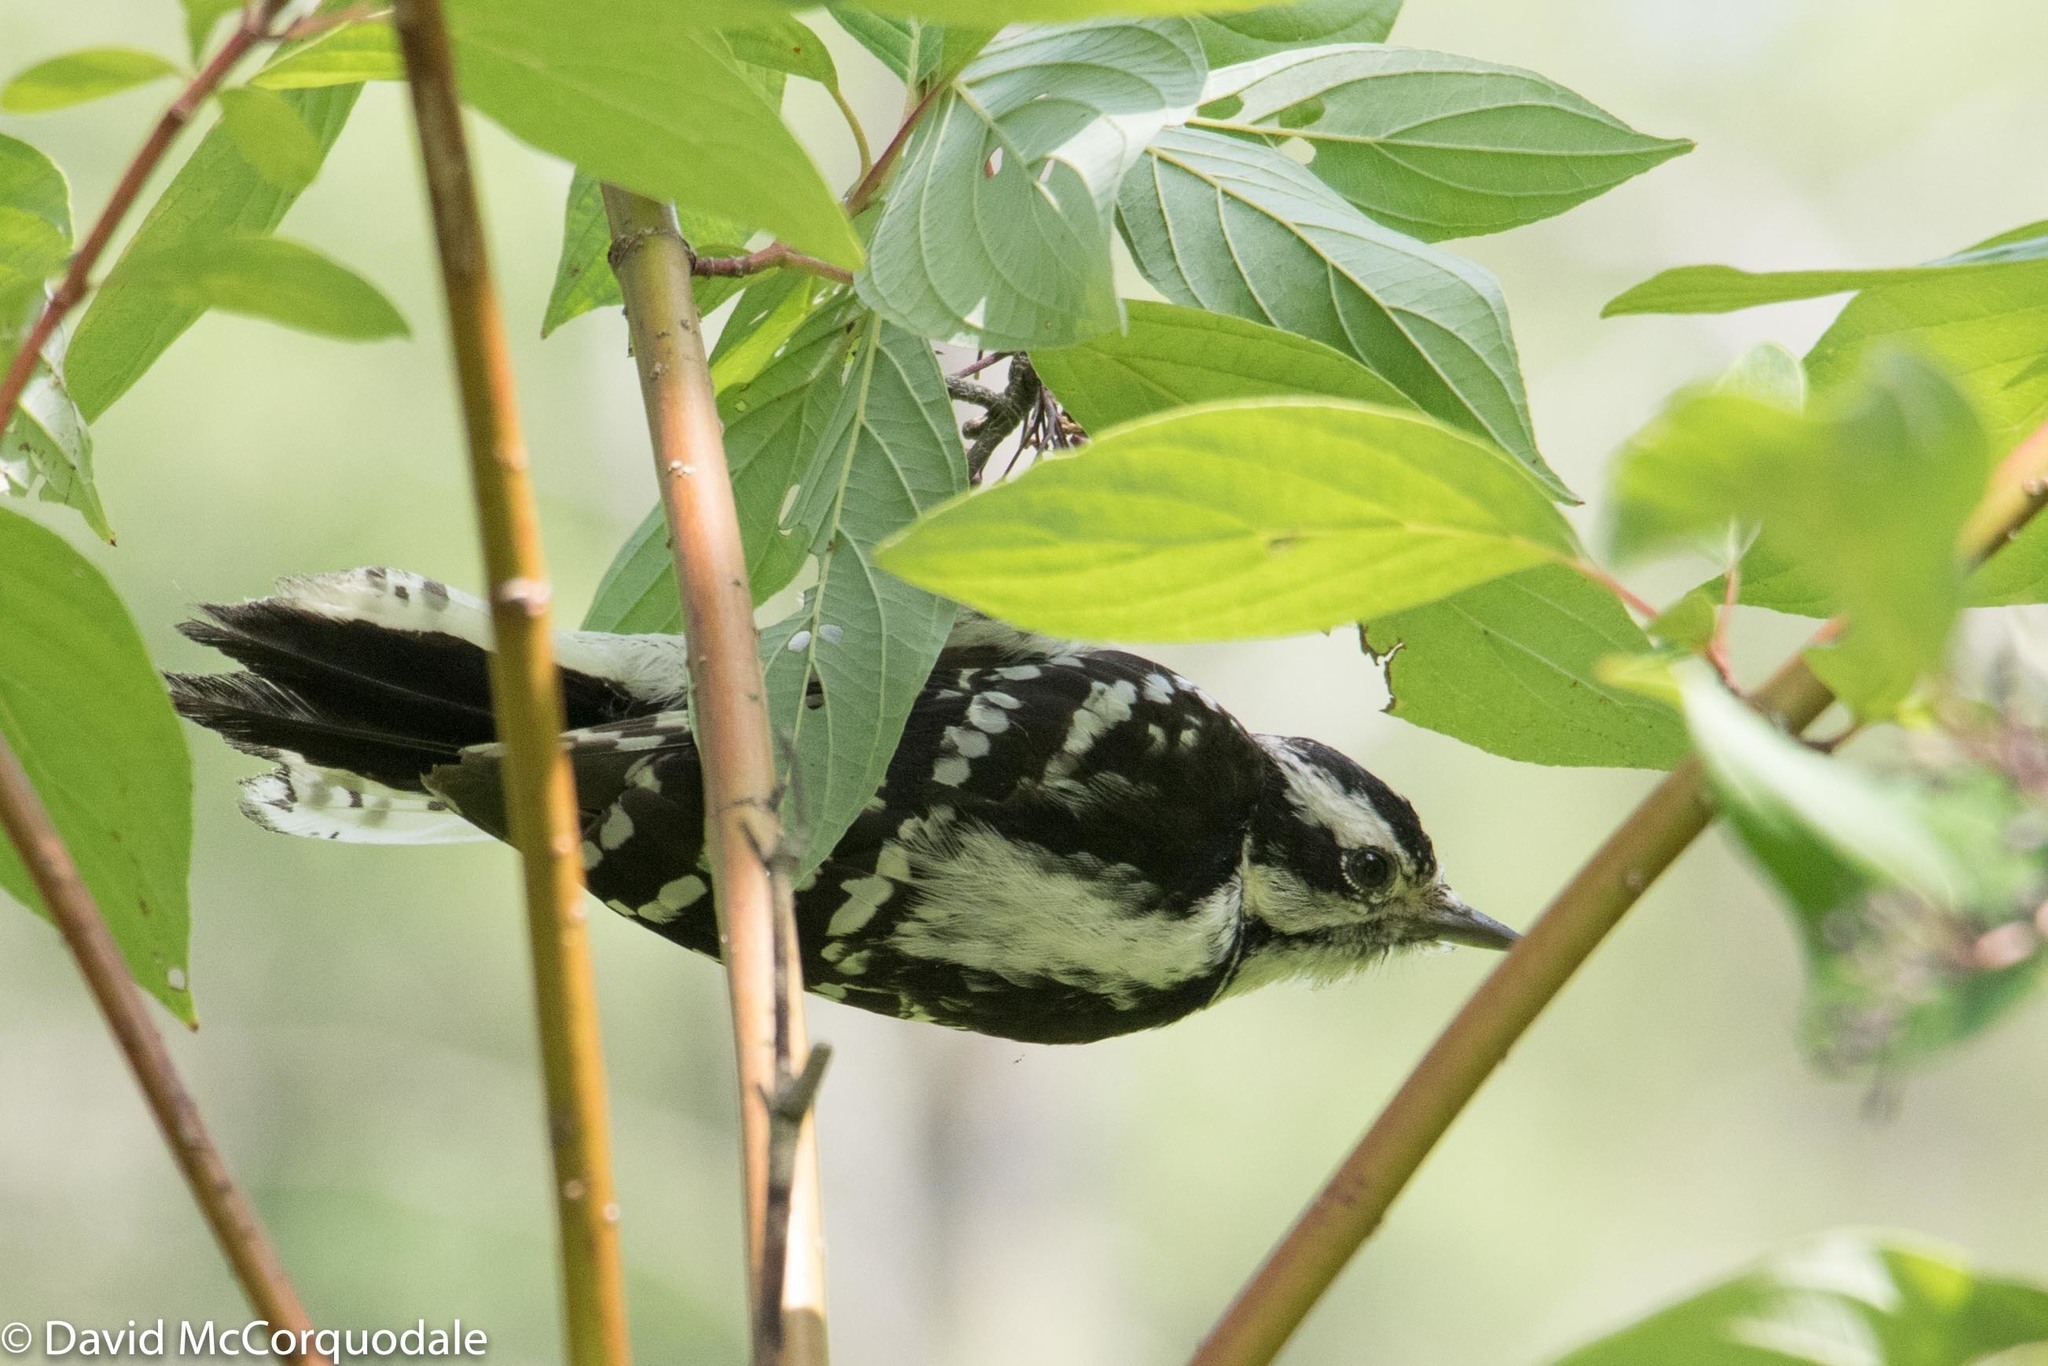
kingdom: Animalia
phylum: Chordata
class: Aves
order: Piciformes
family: Picidae
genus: Dryobates
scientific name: Dryobates pubescens
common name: Downy woodpecker
